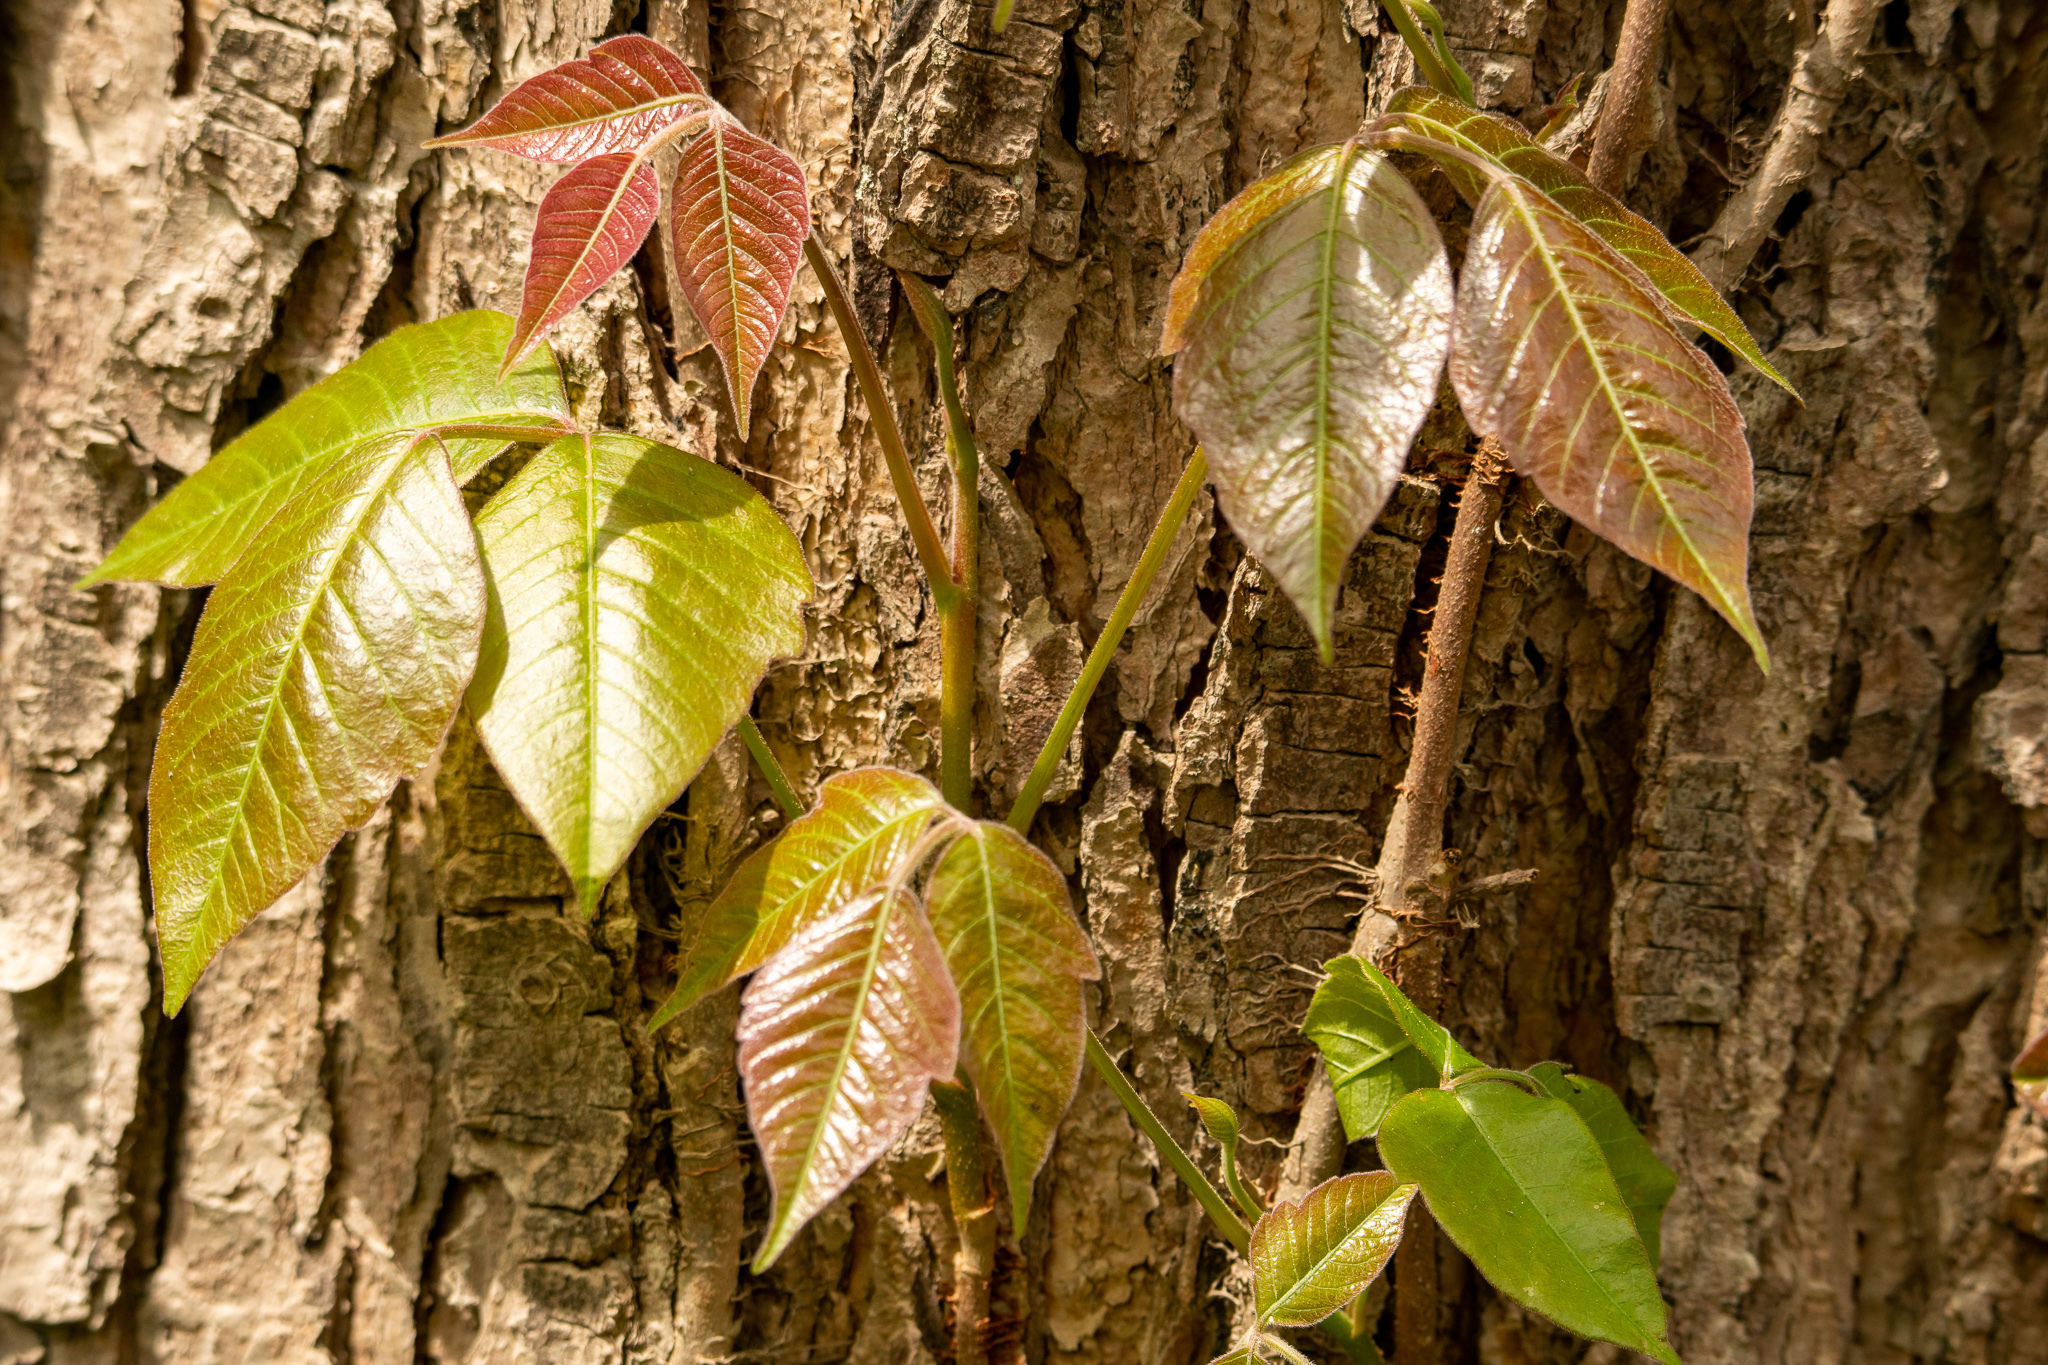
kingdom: Plantae
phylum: Tracheophyta
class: Magnoliopsida
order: Sapindales
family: Anacardiaceae
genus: Toxicodendron
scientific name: Toxicodendron radicans
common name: Poison ivy
